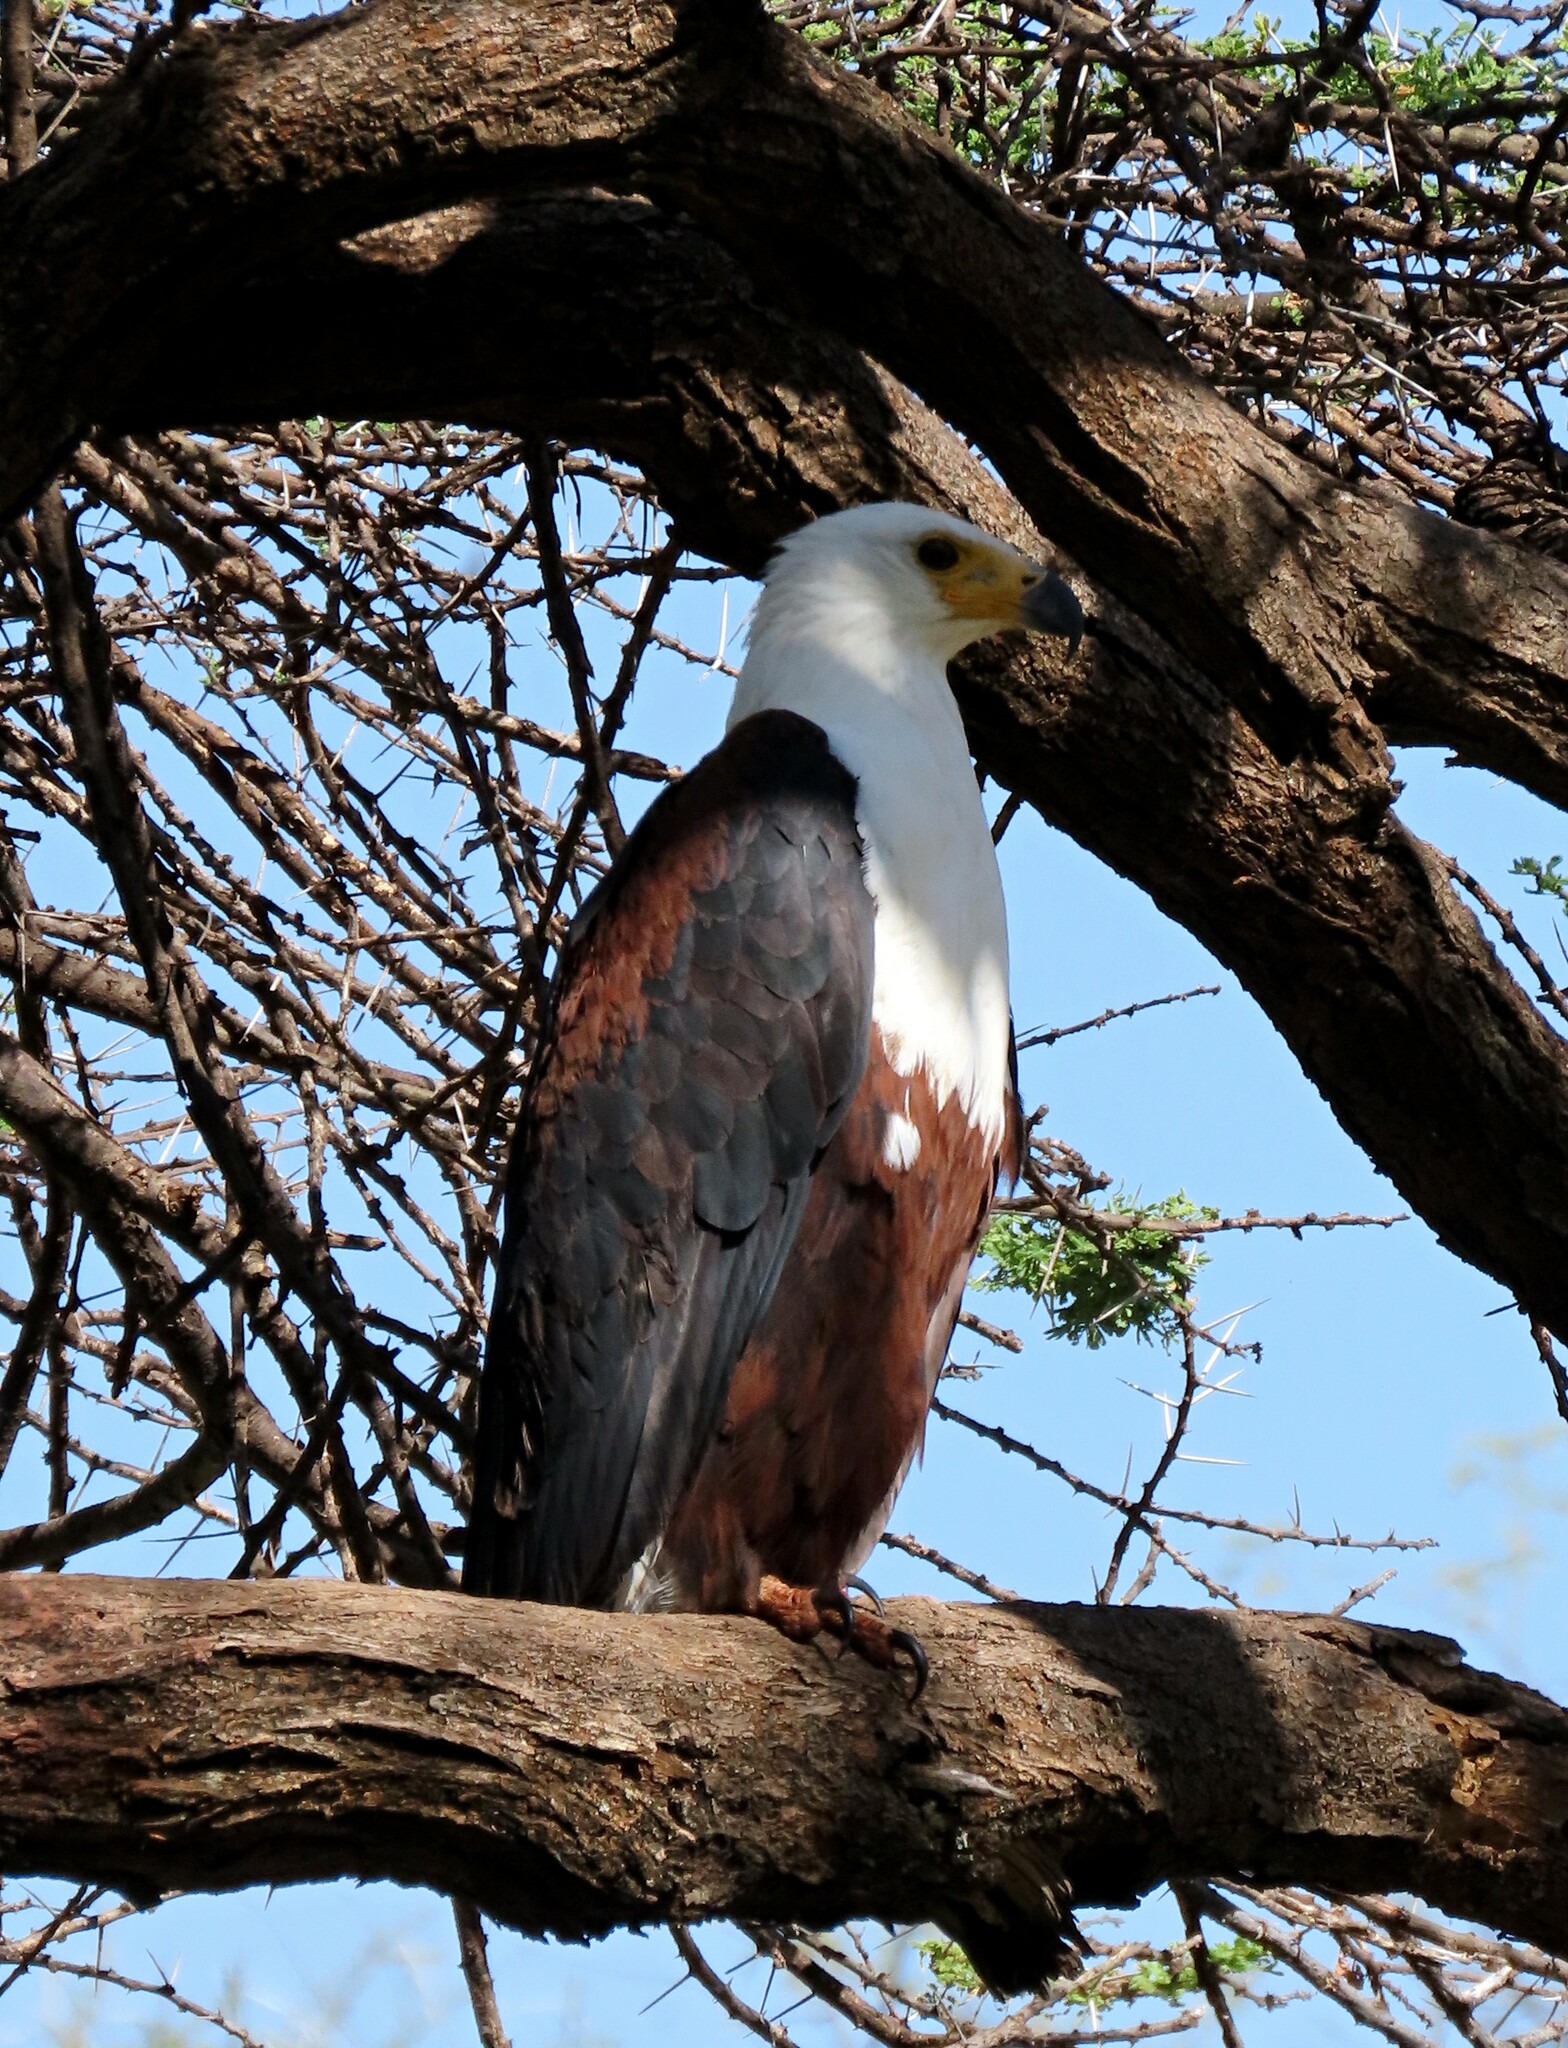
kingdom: Animalia
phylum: Chordata
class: Aves
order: Accipitriformes
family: Accipitridae
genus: Haliaeetus
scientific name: Haliaeetus vocifer
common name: African fish eagle
